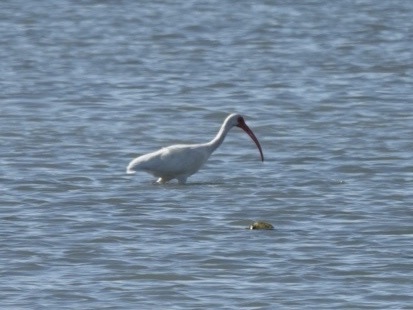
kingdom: Animalia
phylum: Chordata
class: Aves
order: Pelecaniformes
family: Threskiornithidae
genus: Eudocimus
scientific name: Eudocimus albus
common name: White ibis
